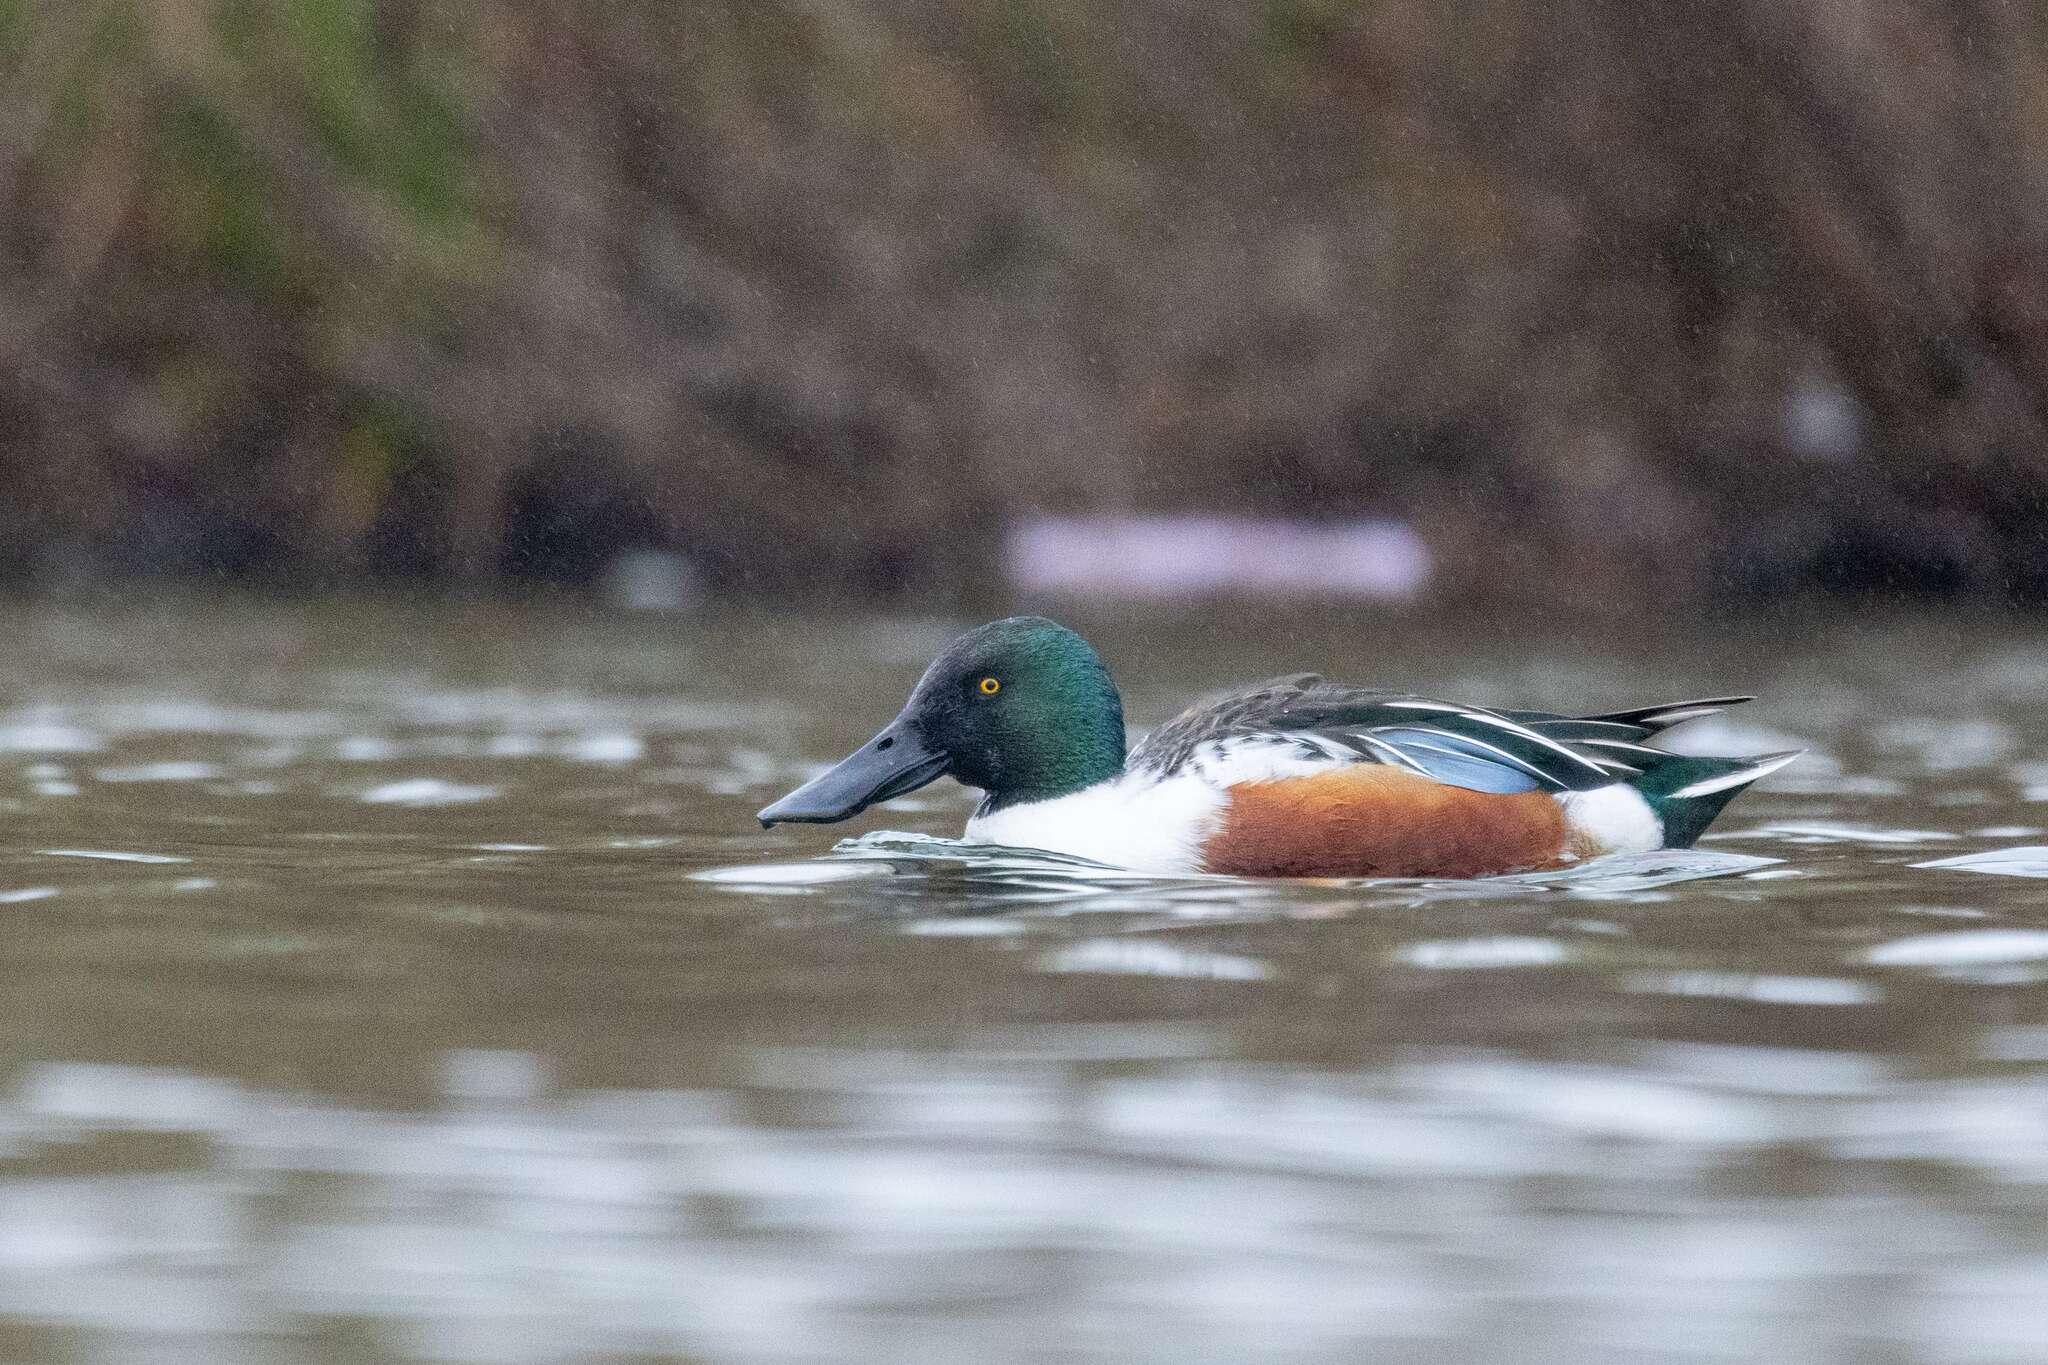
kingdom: Animalia
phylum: Chordata
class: Aves
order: Anseriformes
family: Anatidae
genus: Spatula
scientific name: Spatula clypeata
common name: Northern shoveler
